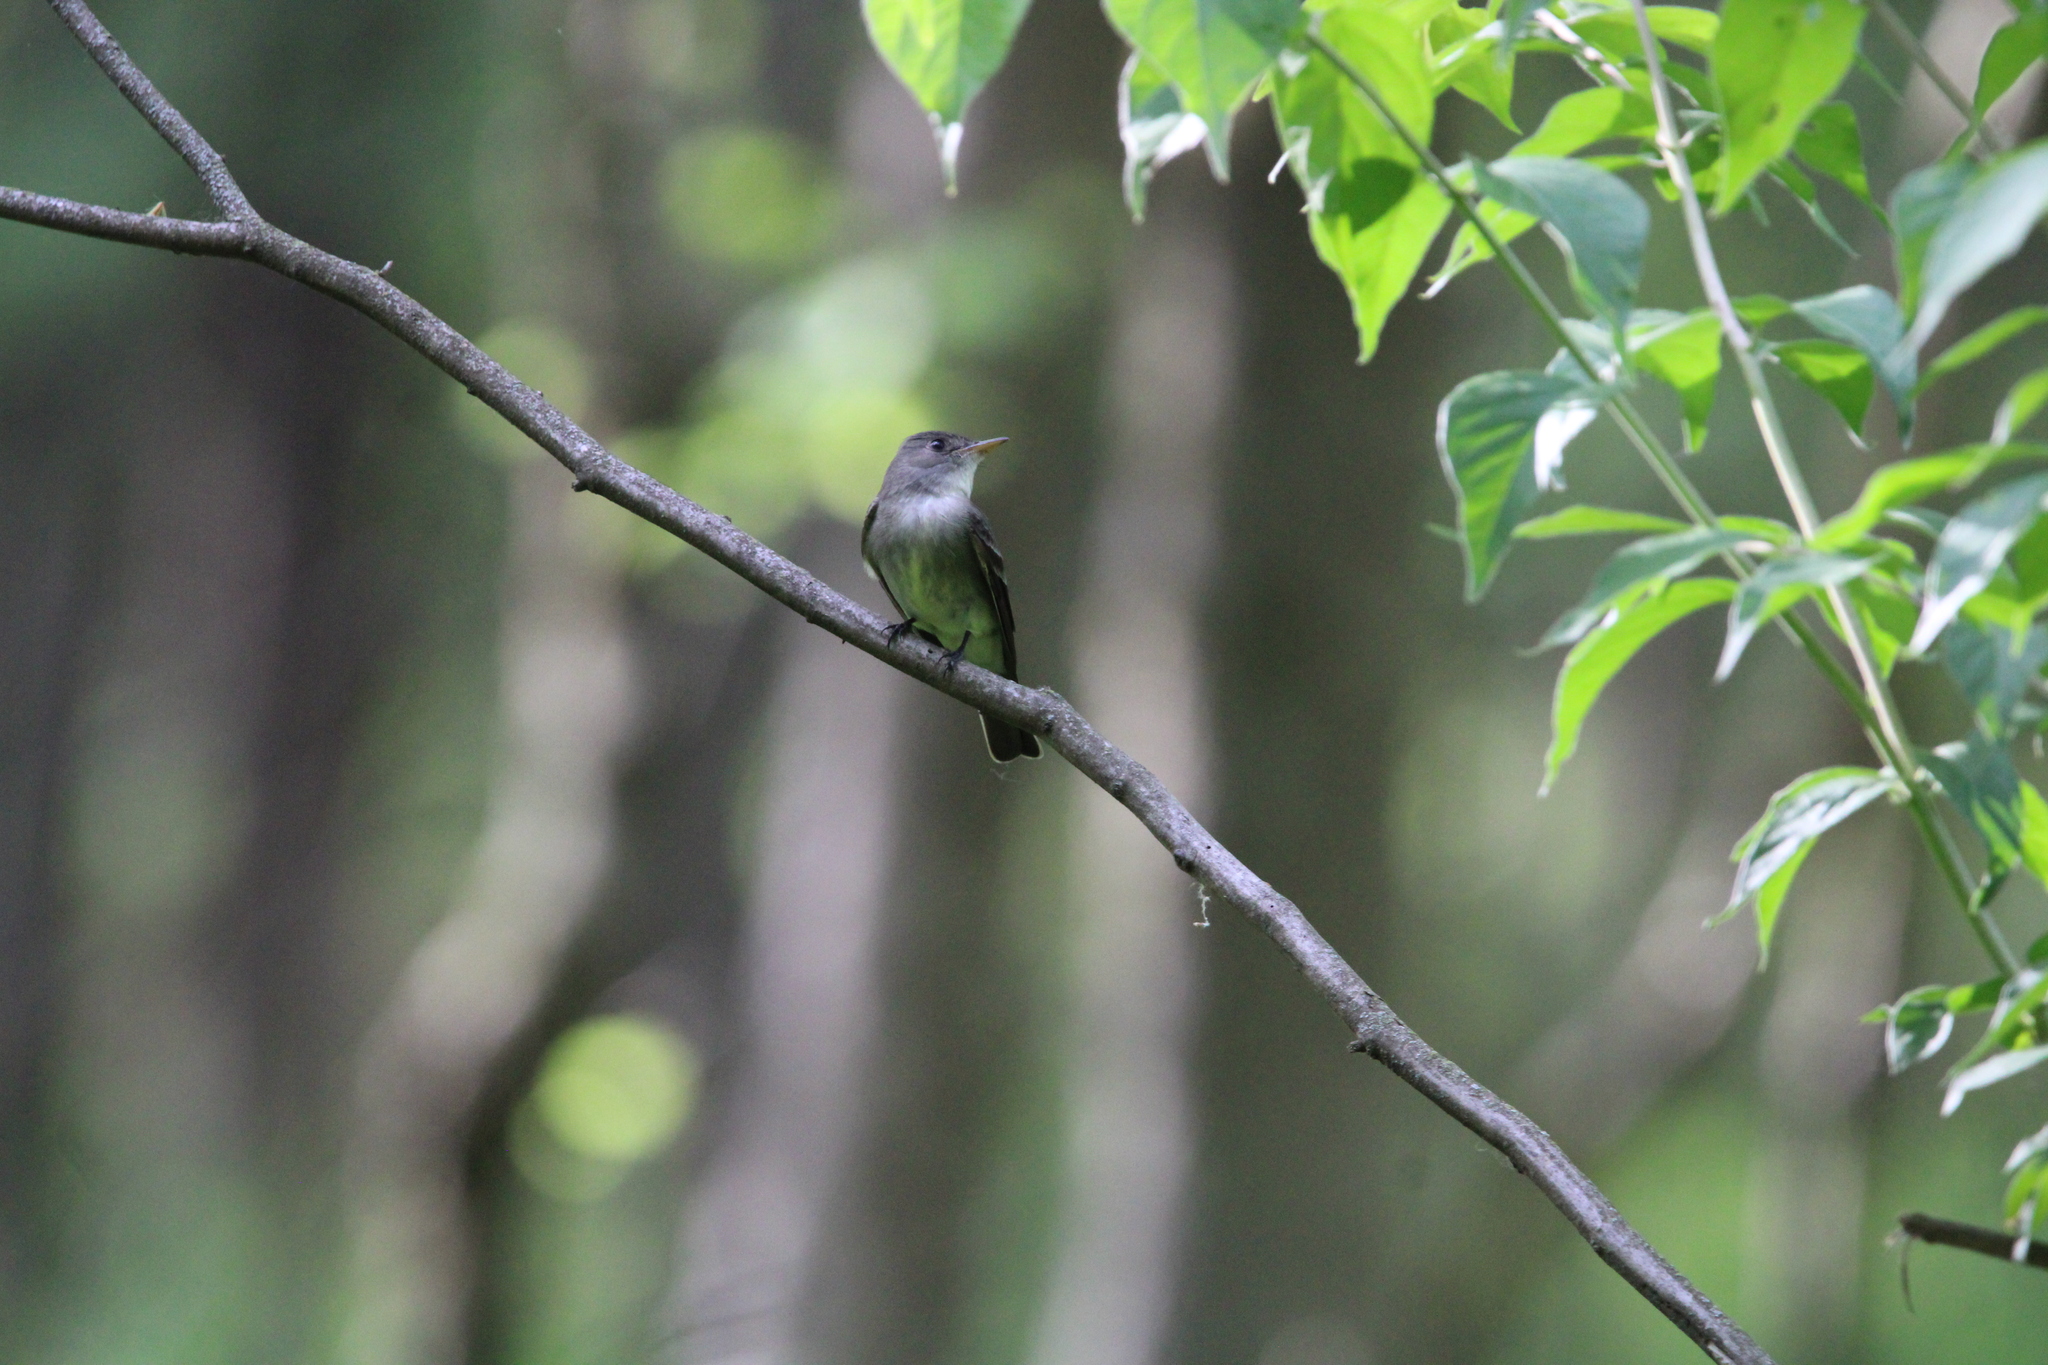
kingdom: Animalia
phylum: Chordata
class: Aves
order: Passeriformes
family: Tyrannidae
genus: Contopus
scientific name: Contopus virens
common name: Eastern wood-pewee
